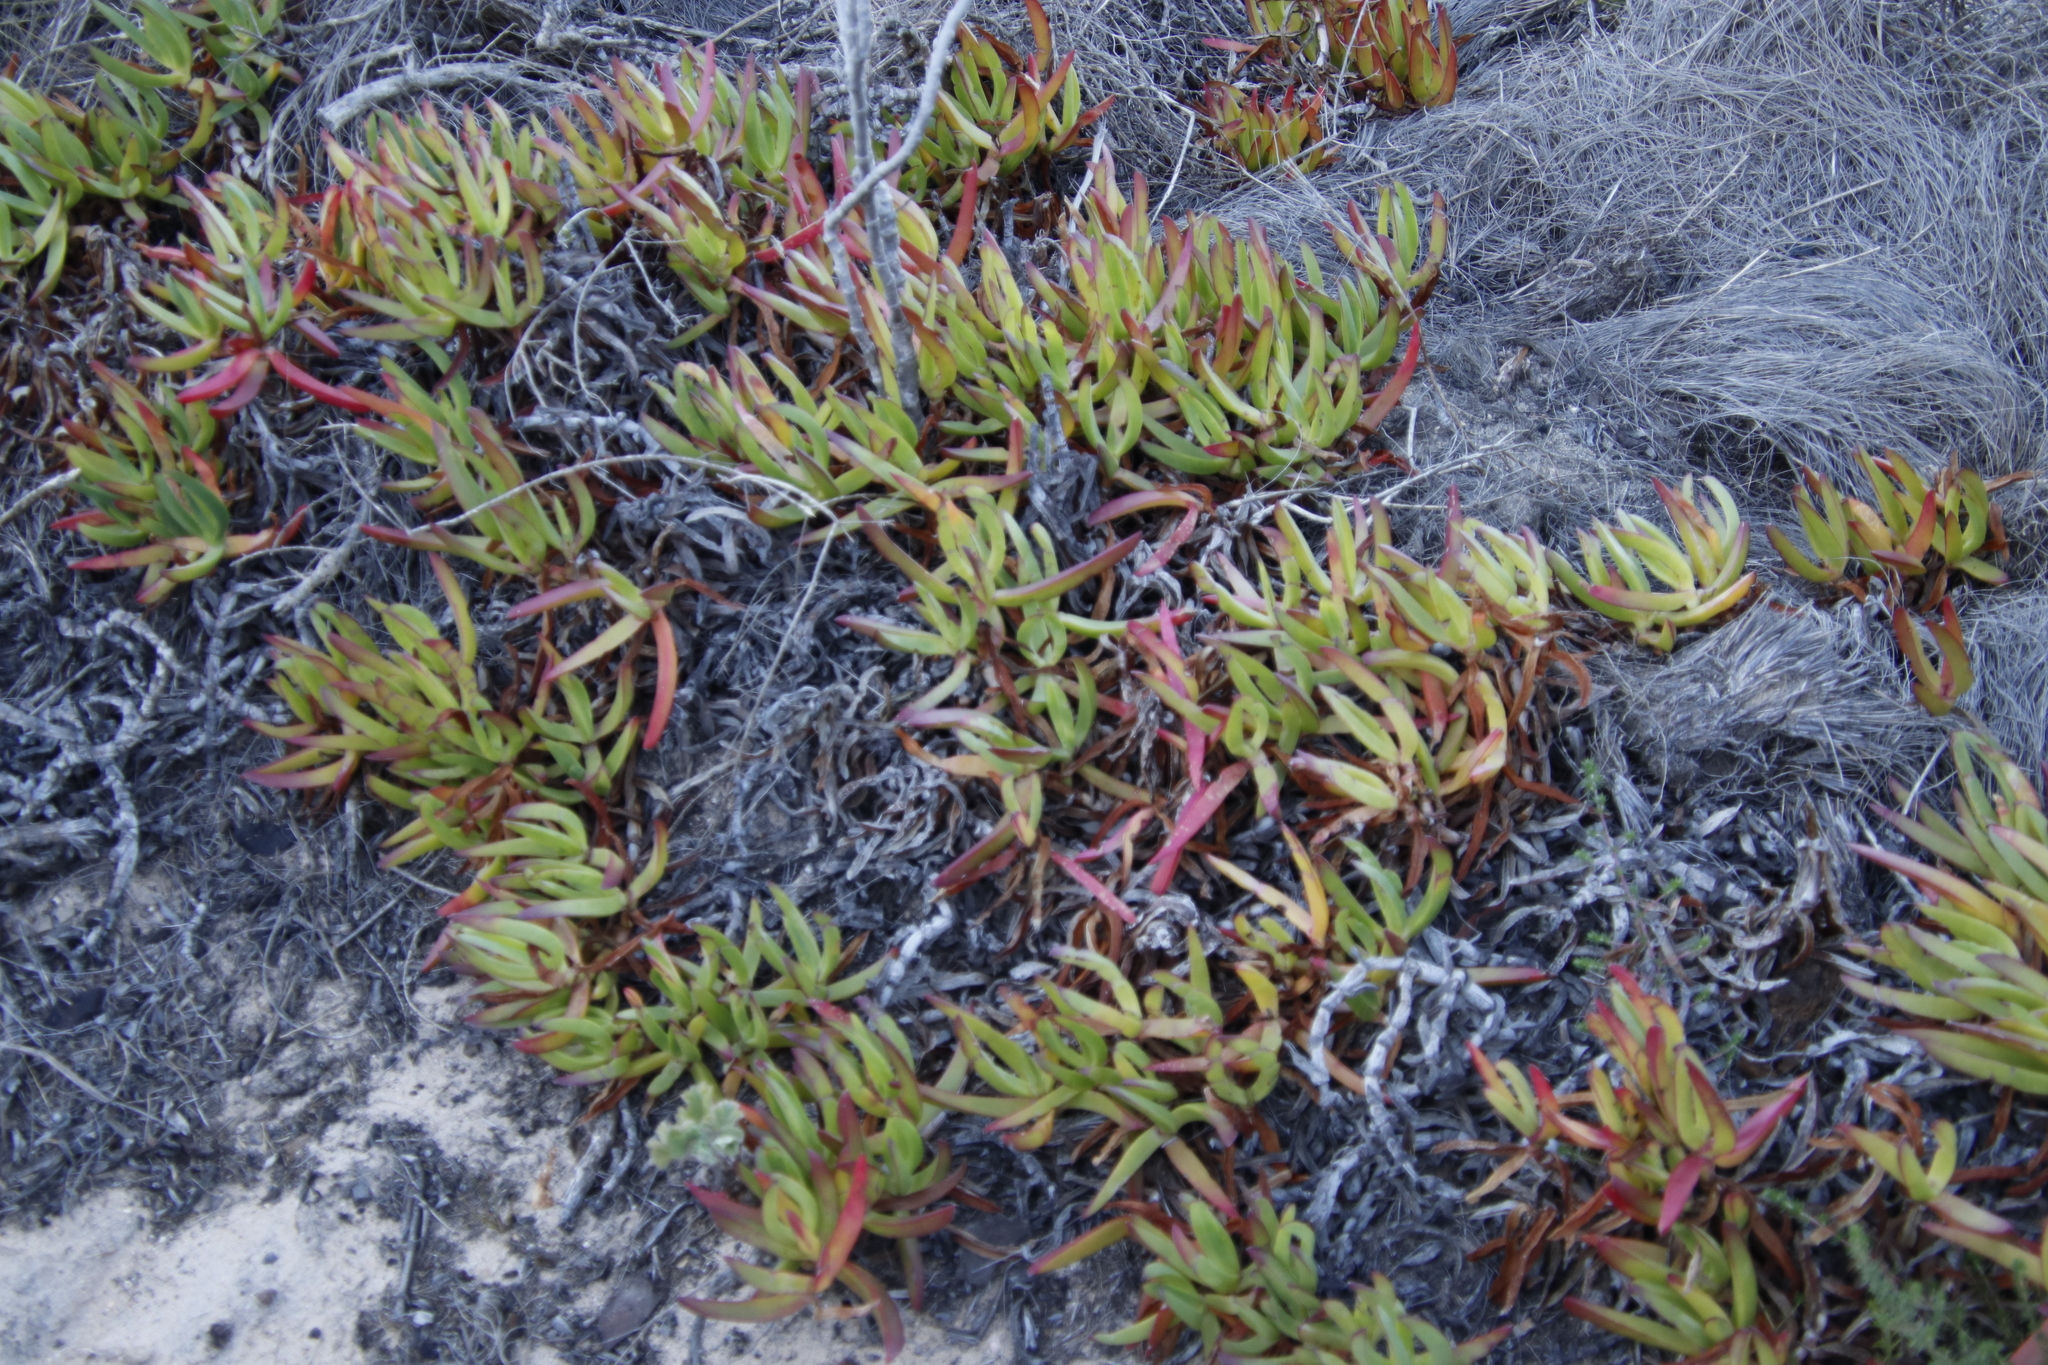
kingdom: Plantae
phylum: Tracheophyta
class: Magnoliopsida
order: Caryophyllales
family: Aizoaceae
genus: Carpobrotus
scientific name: Carpobrotus edulis
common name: Hottentot-fig
